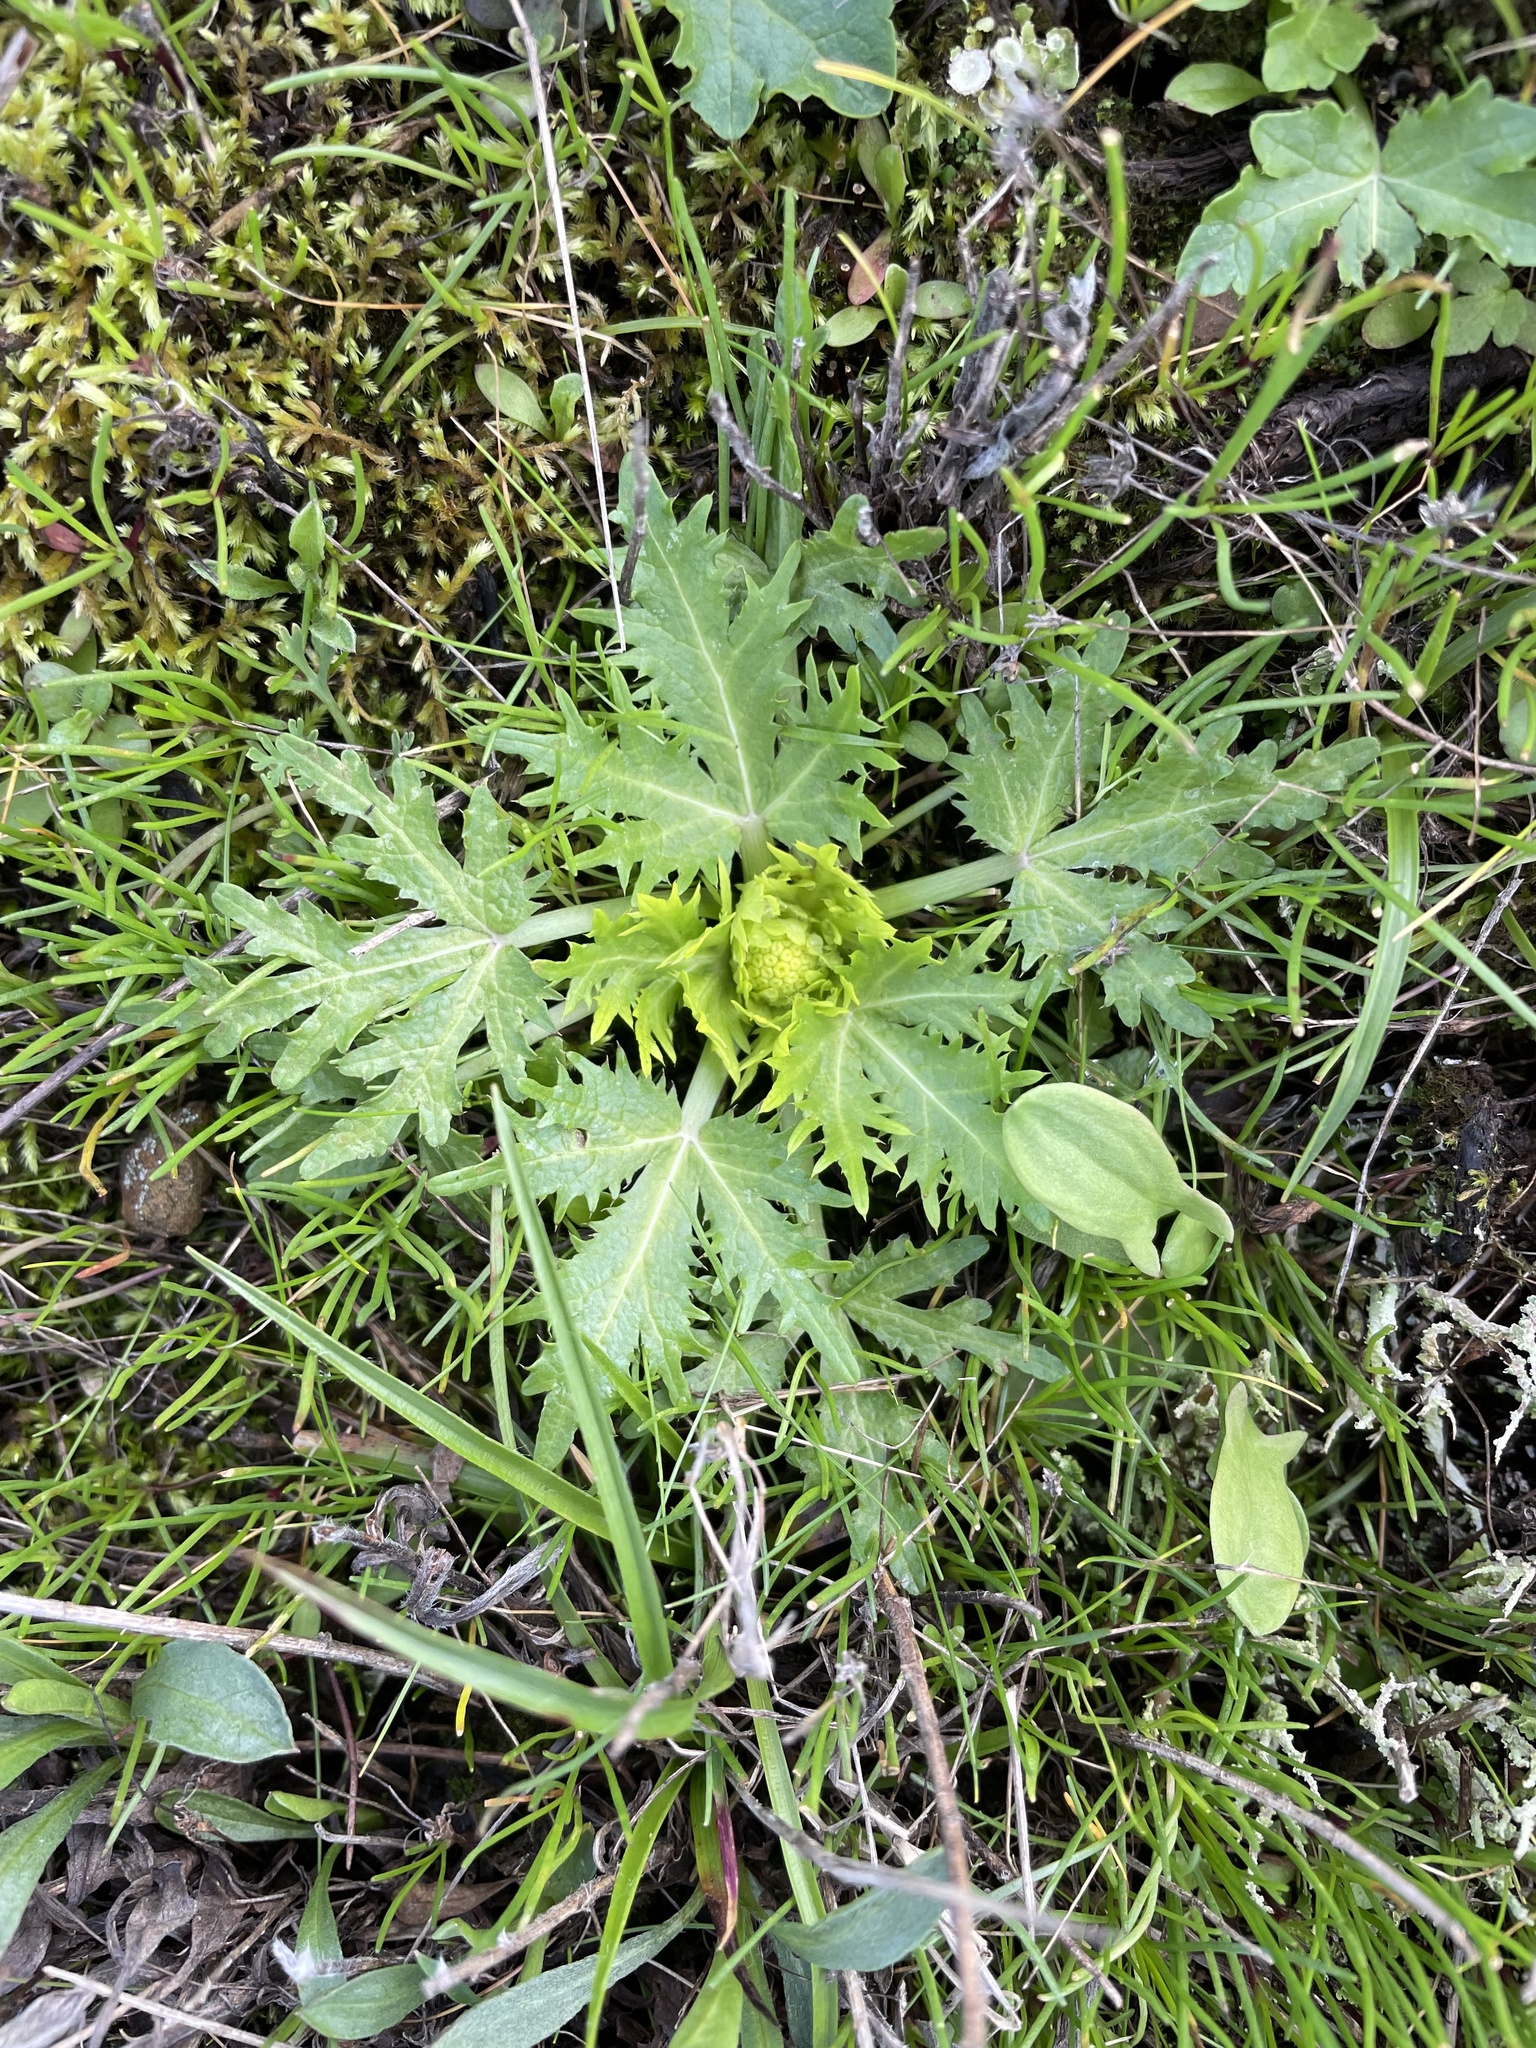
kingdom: Plantae
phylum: Tracheophyta
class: Magnoliopsida
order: Apiales
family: Apiaceae
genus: Sanicula
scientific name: Sanicula arctopoides
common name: Footsteps-of-spring
